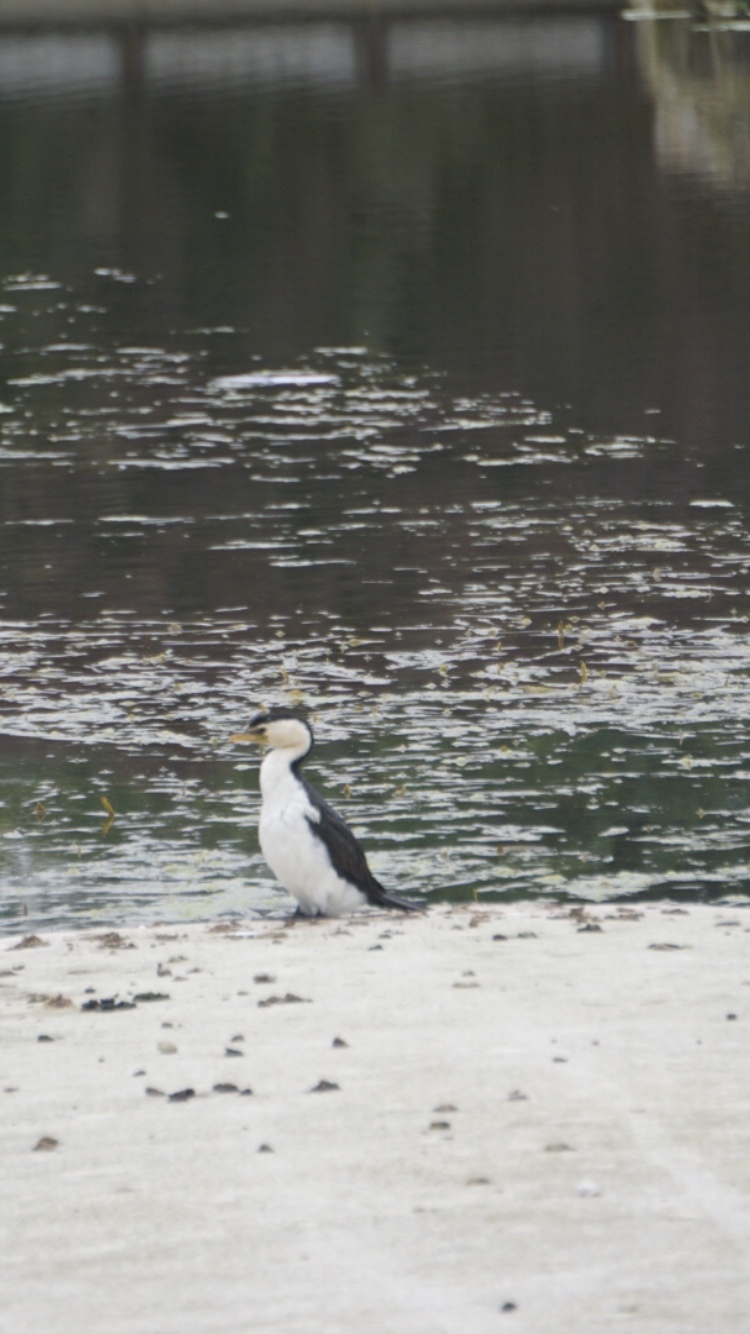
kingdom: Animalia
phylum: Chordata
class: Aves
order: Suliformes
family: Phalacrocoracidae
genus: Microcarbo
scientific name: Microcarbo melanoleucos
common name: Little pied cormorant
